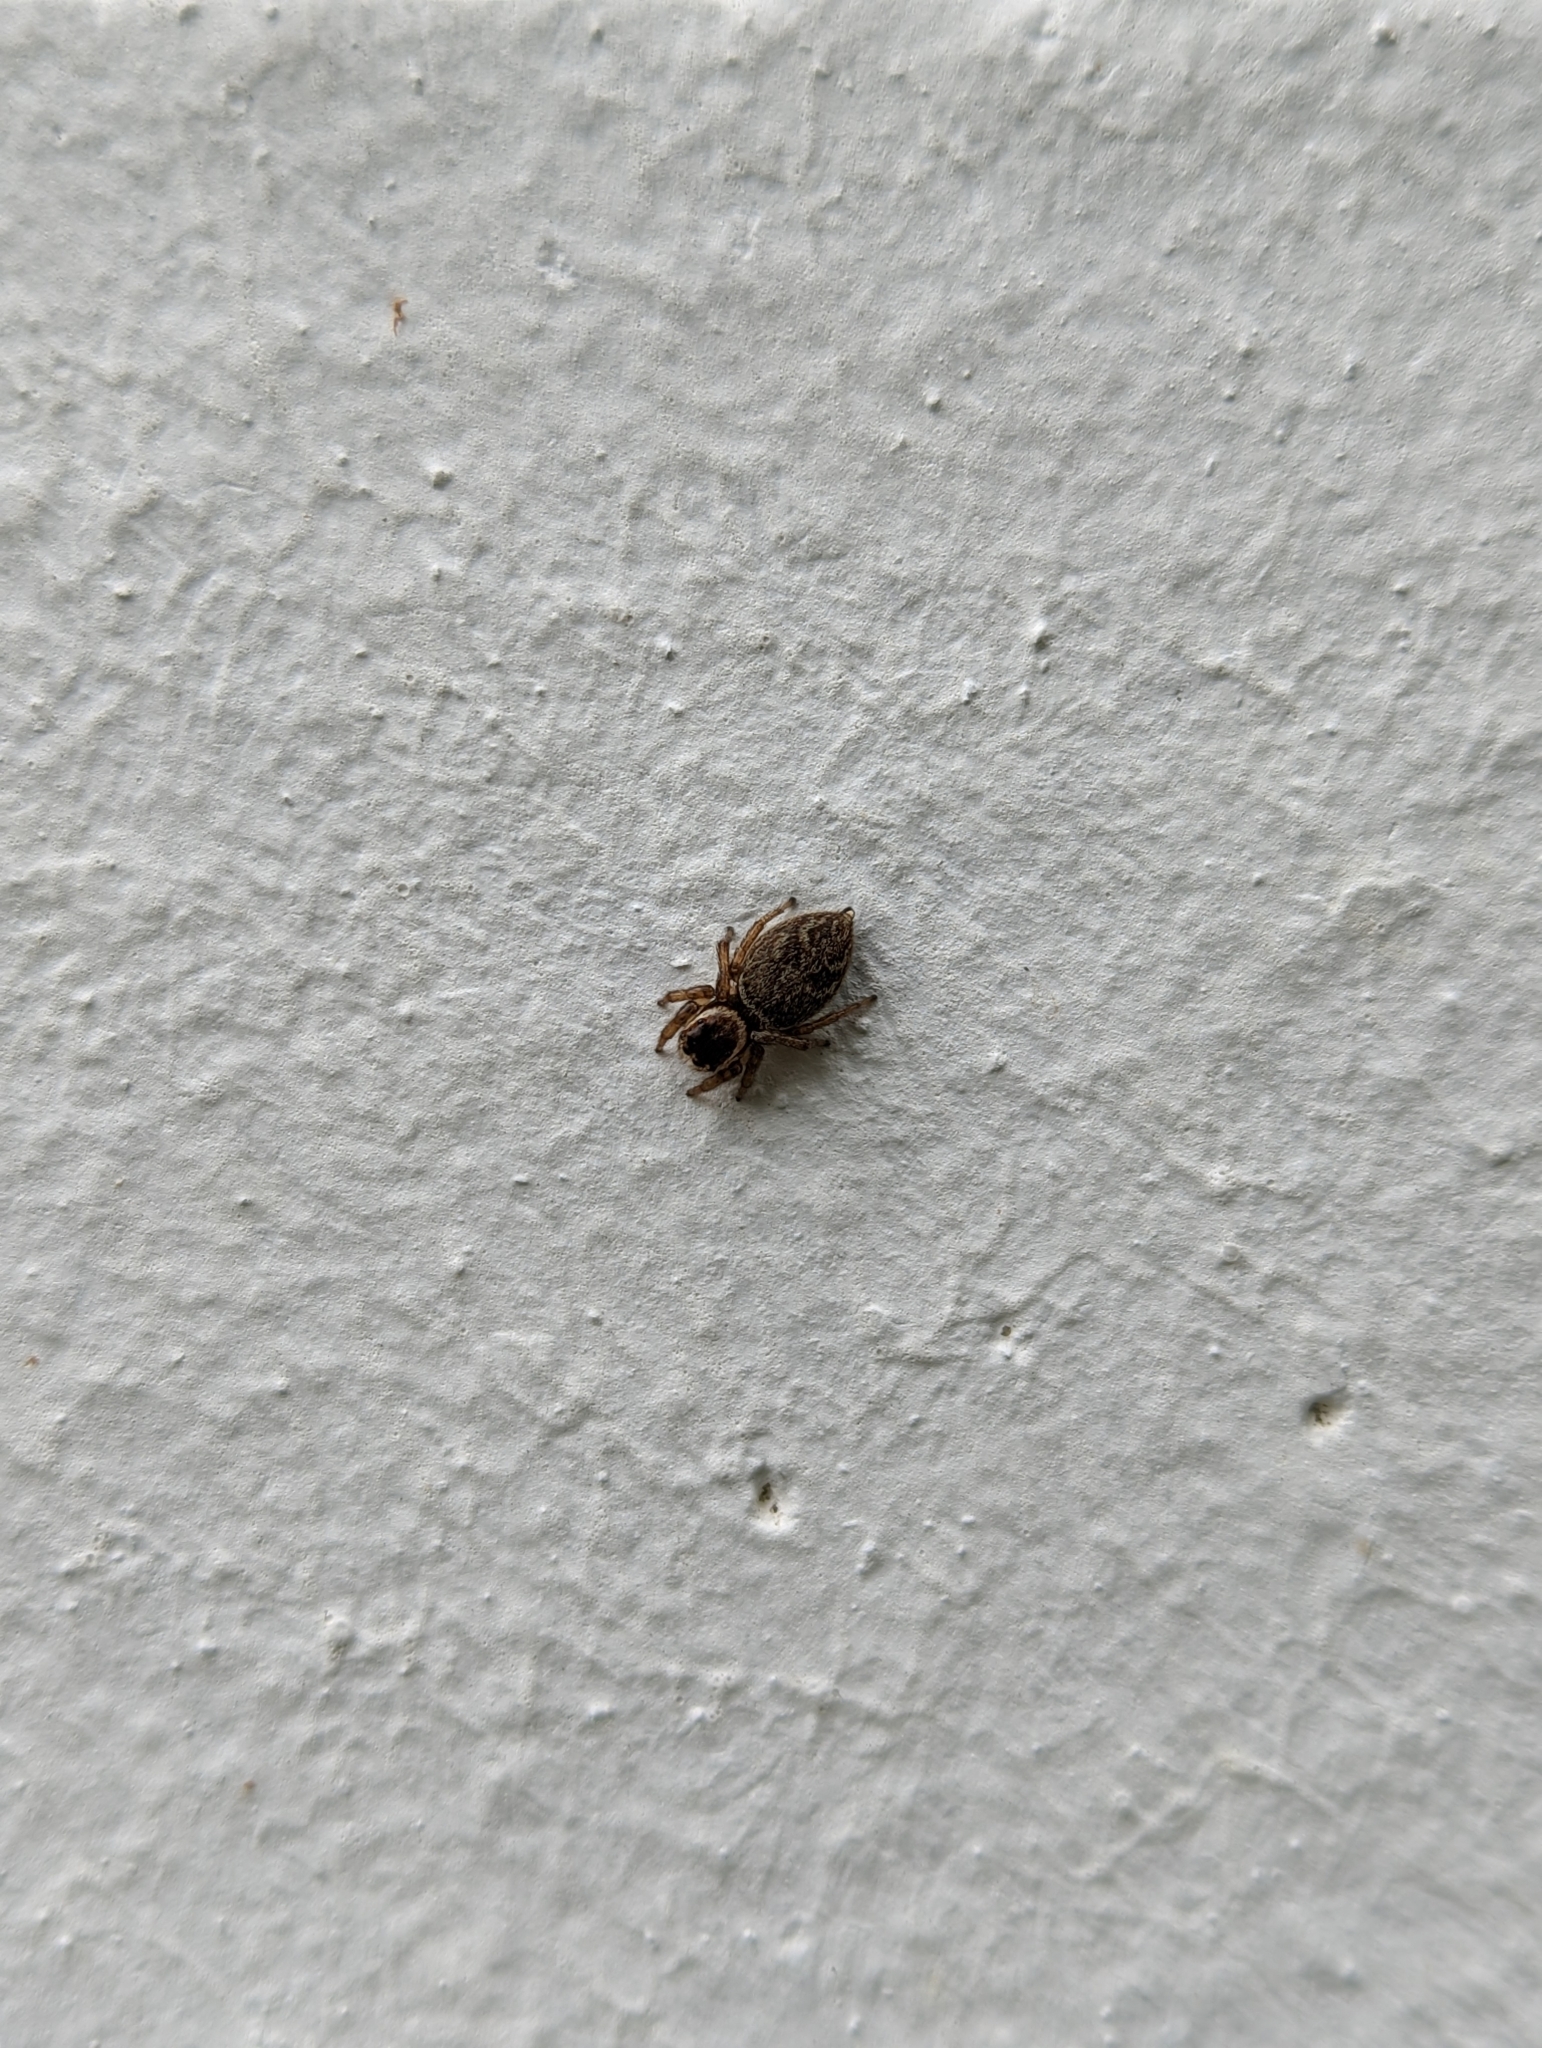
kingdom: Animalia
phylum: Arthropoda
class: Arachnida
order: Araneae
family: Salticidae
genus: Maratus
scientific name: Maratus griseus
